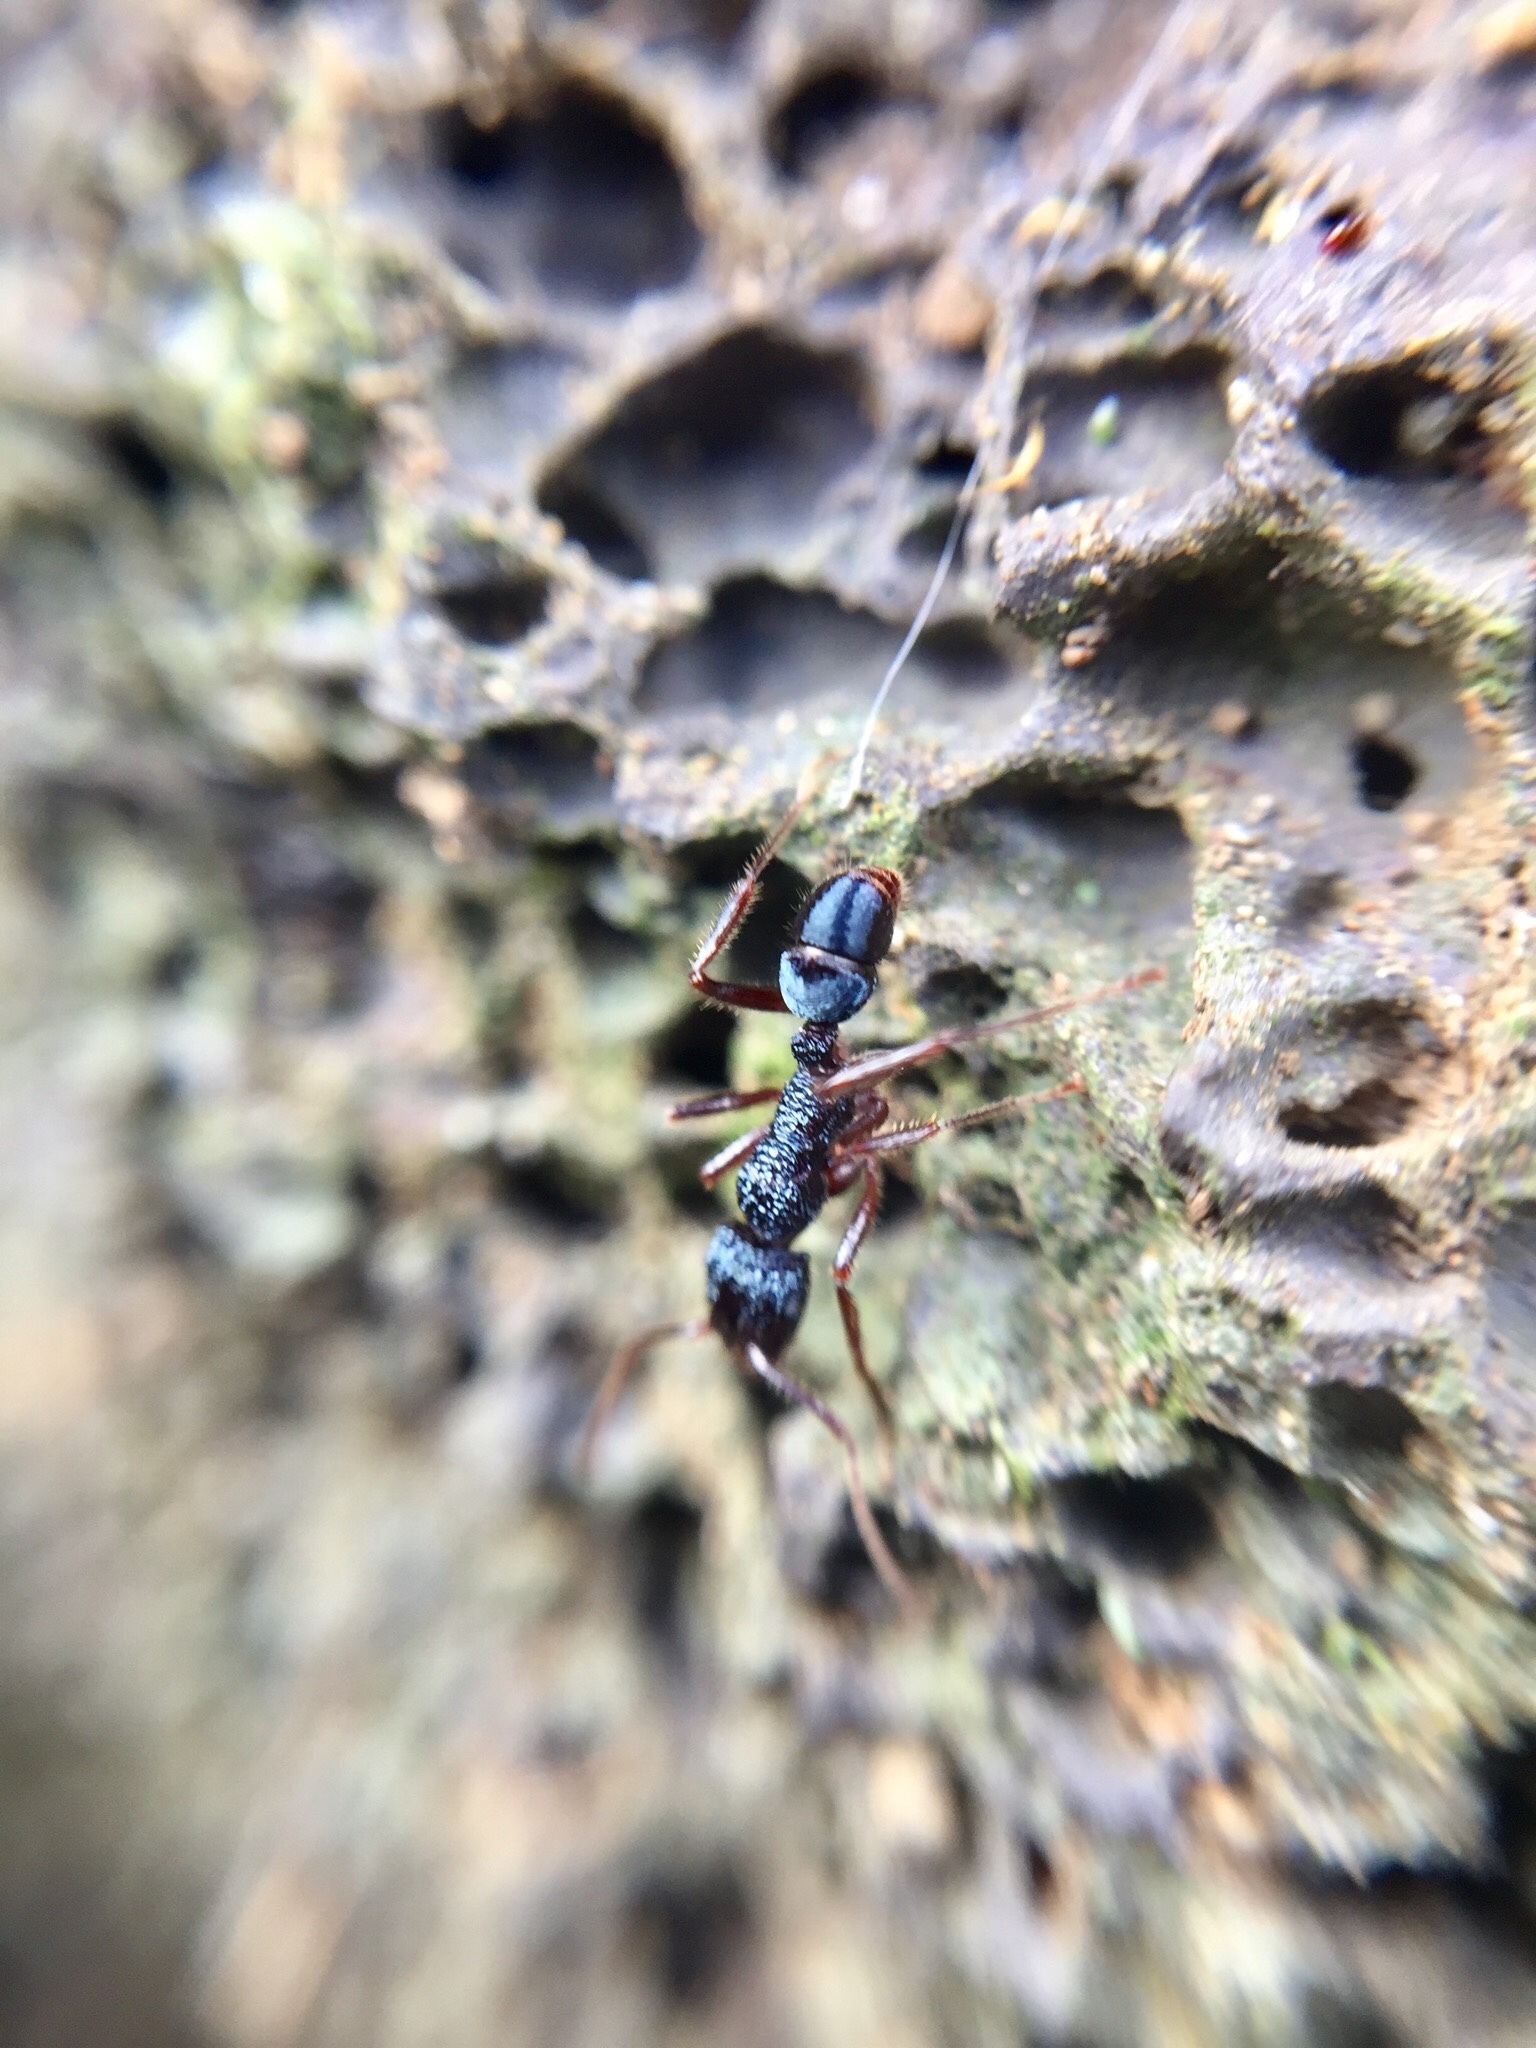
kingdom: Animalia
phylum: Arthropoda
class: Insecta
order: Hymenoptera
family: Formicidae
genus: Rhytidoponera
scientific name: Rhytidoponera chalybaea
